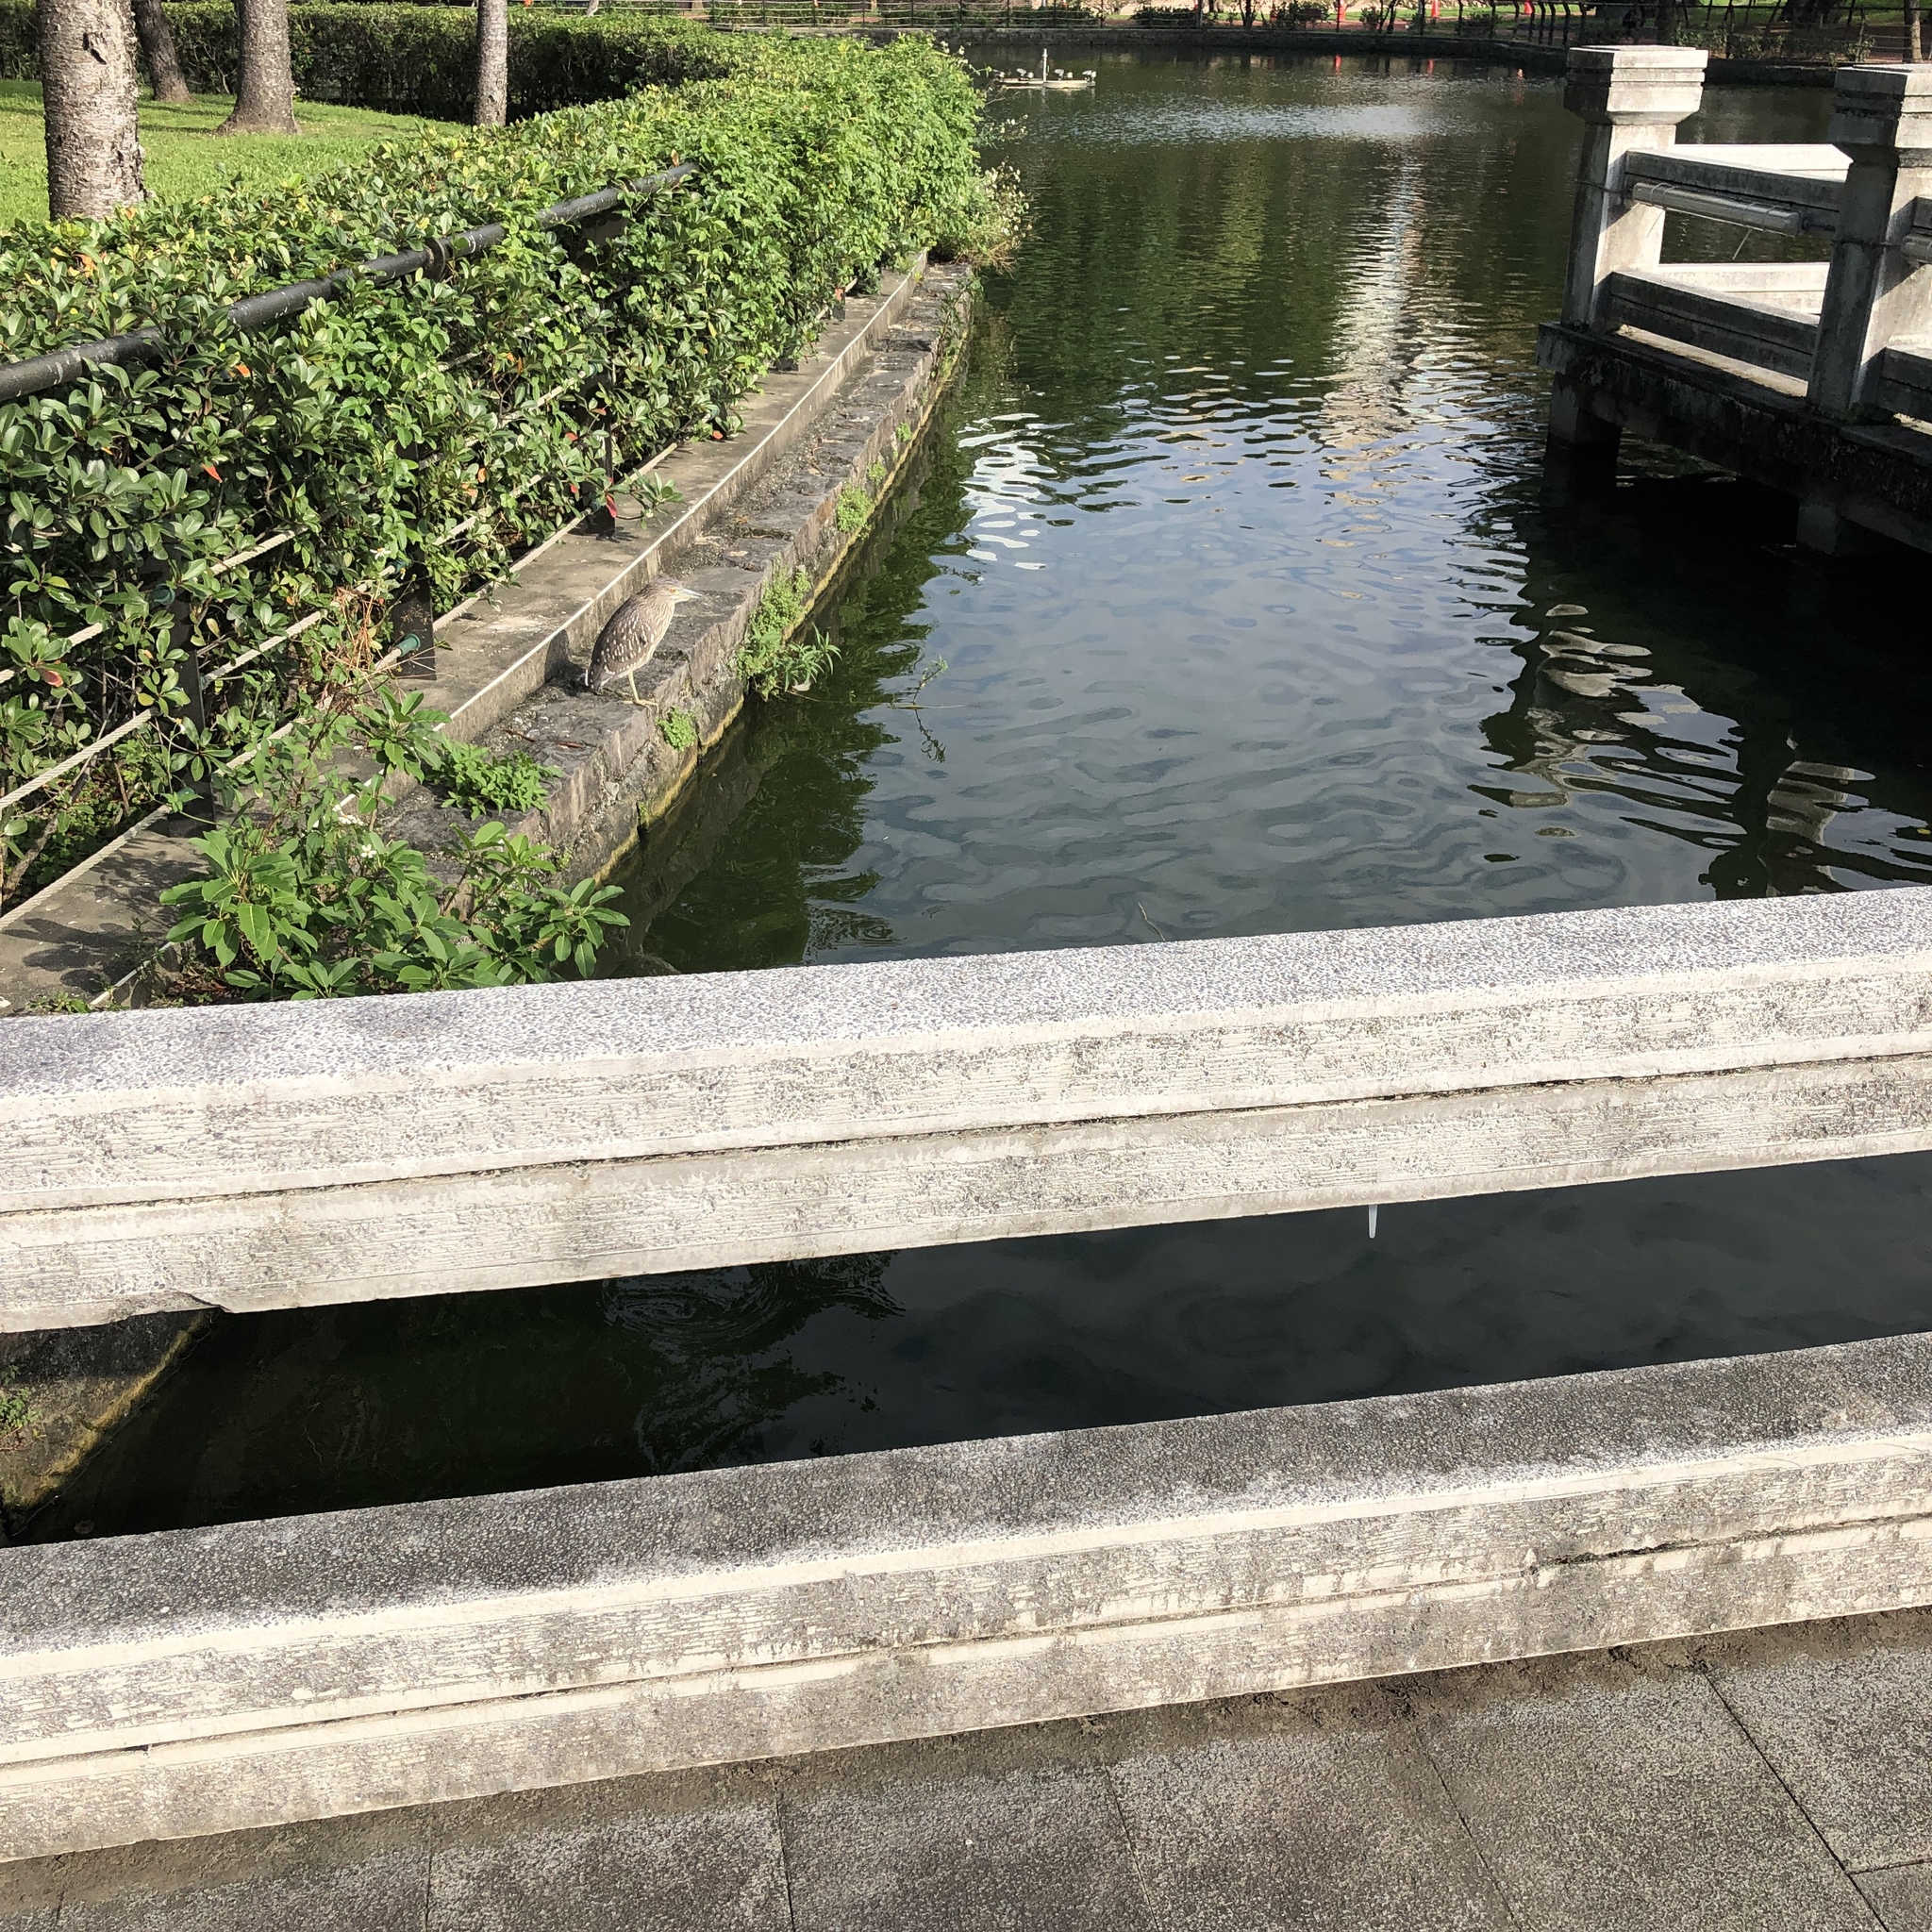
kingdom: Animalia
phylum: Chordata
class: Aves
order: Pelecaniformes
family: Ardeidae
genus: Nycticorax
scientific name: Nycticorax nycticorax
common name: Black-crowned night heron
